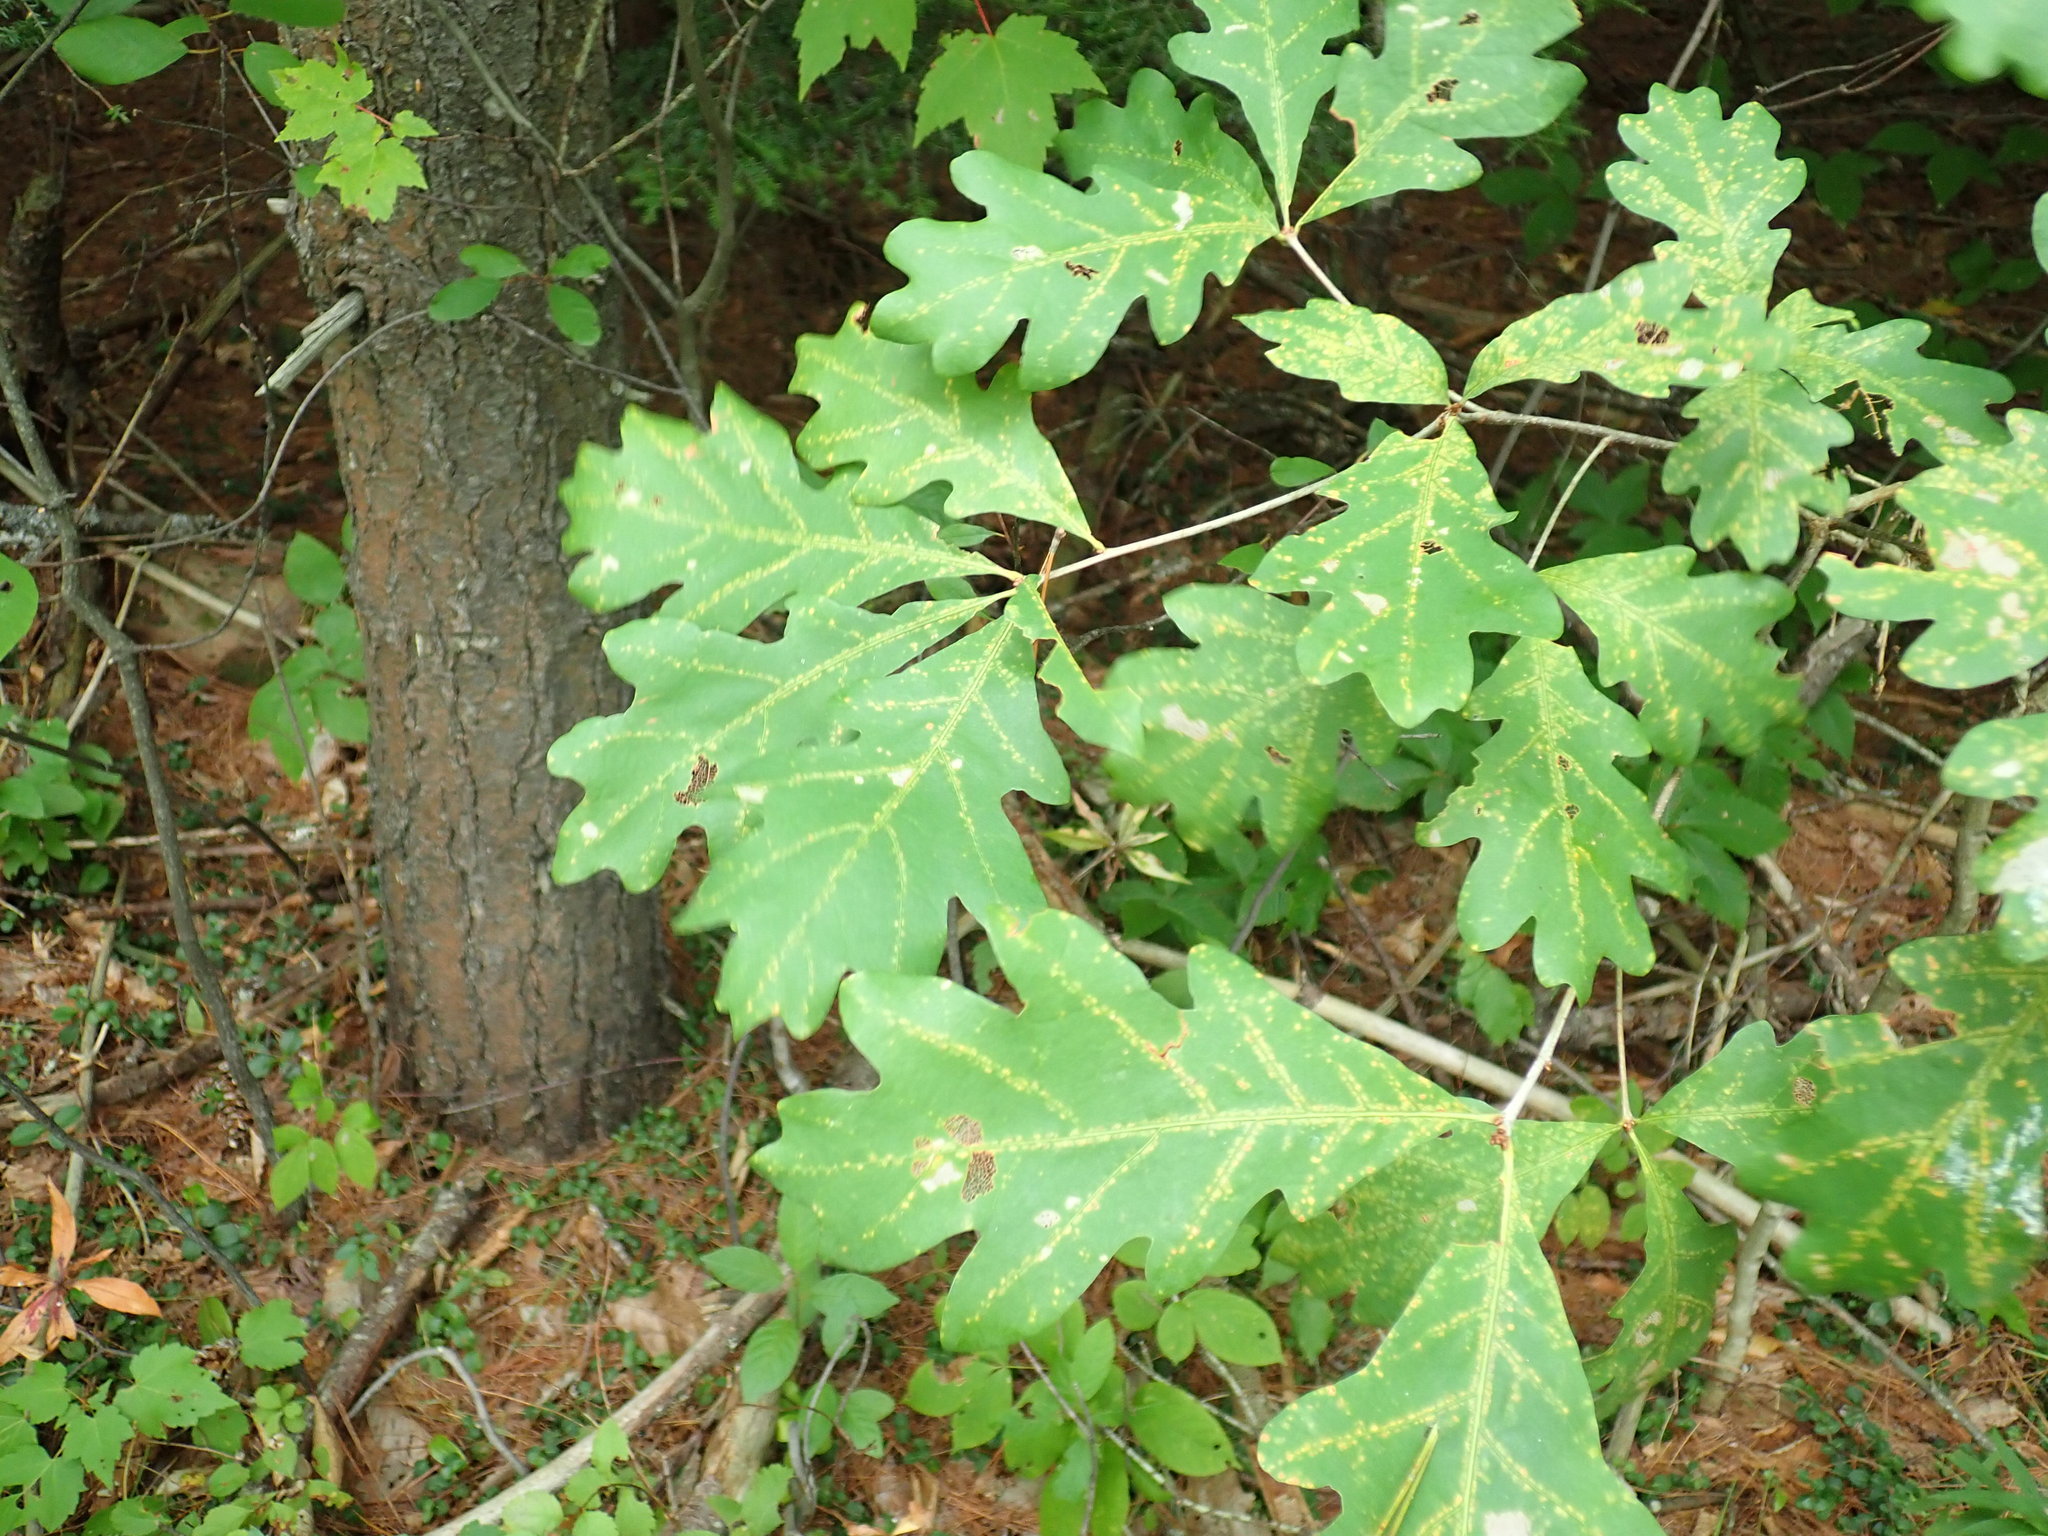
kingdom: Plantae
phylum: Tracheophyta
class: Magnoliopsida
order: Fagales
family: Fagaceae
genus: Quercus
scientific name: Quercus alba
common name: White oak
